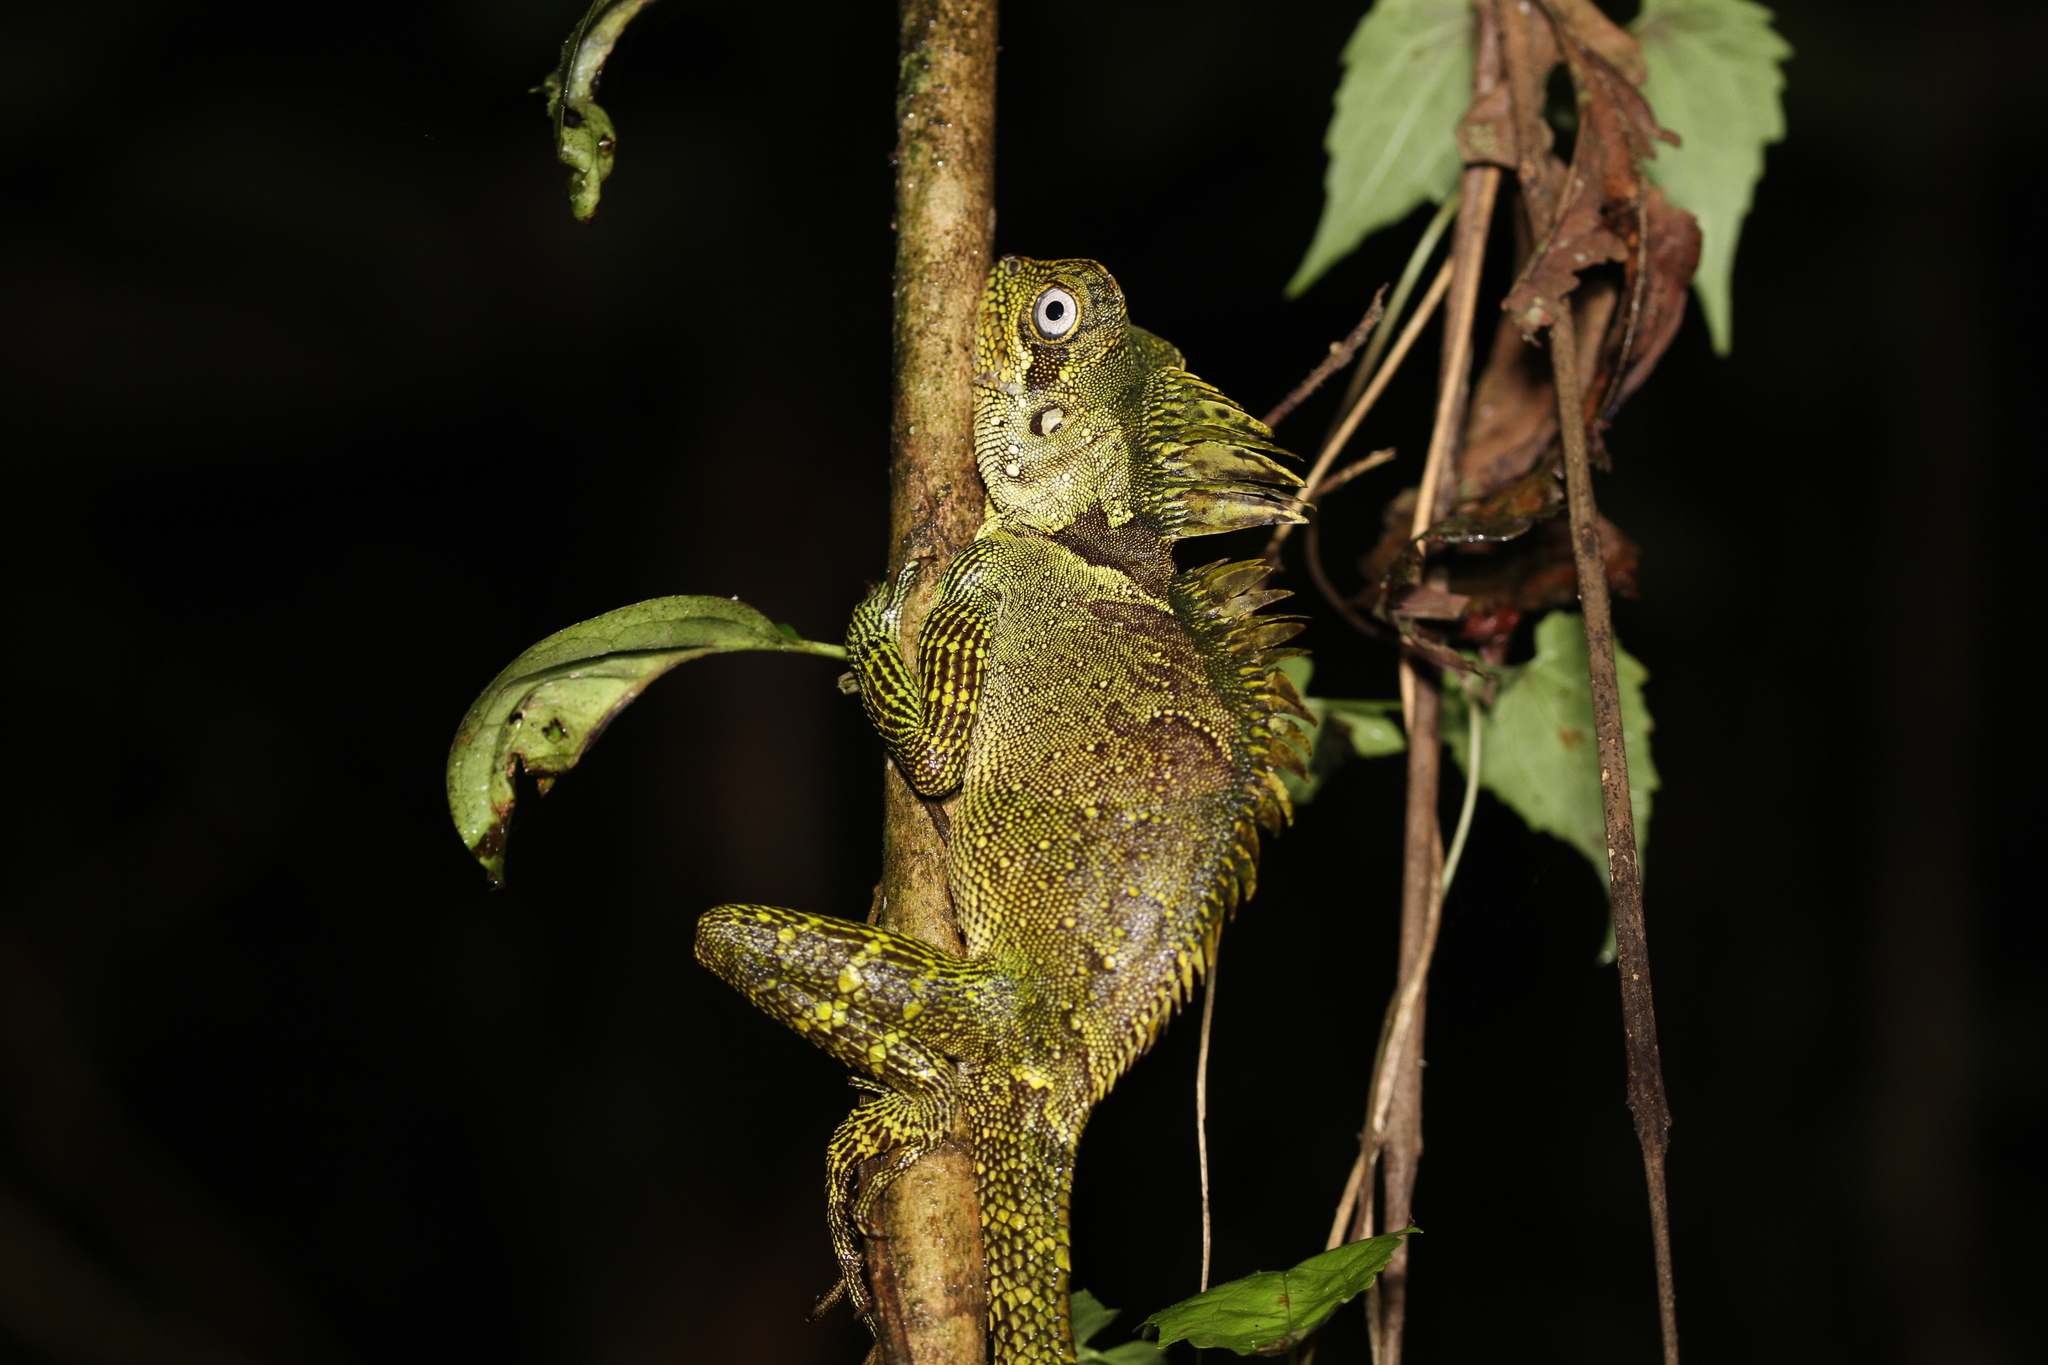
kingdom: Animalia
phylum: Chordata
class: Squamata
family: Agamidae
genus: Gonocephalus
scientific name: Gonocephalus klossi
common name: Kloss' forest dragon
